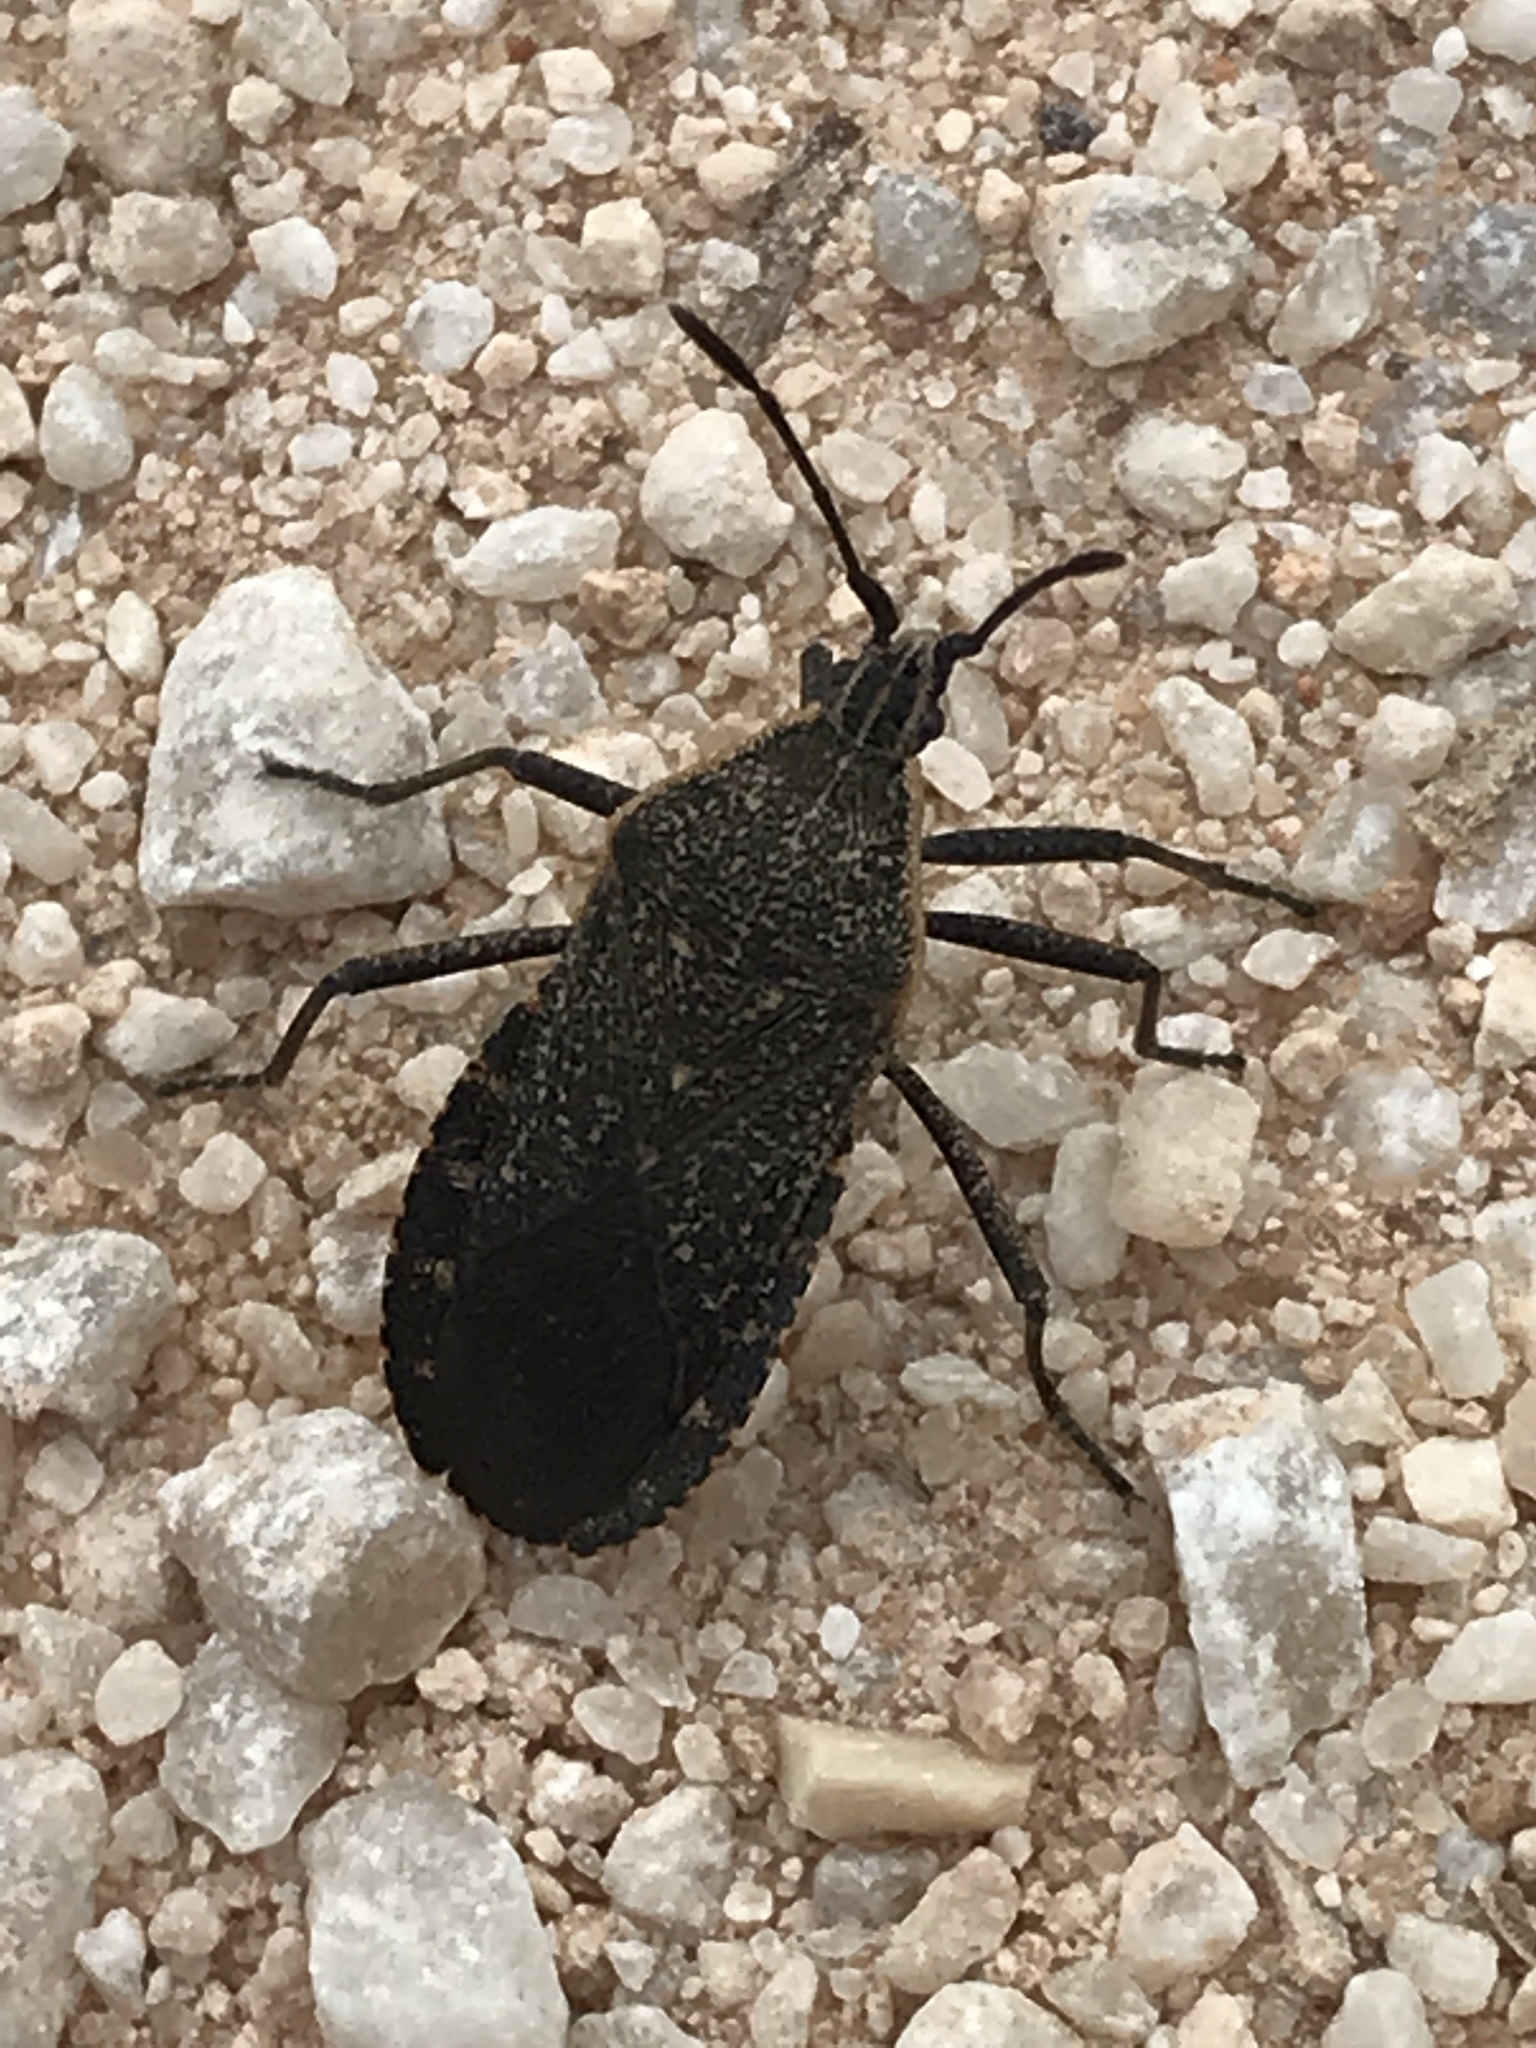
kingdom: Animalia
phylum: Arthropoda
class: Insecta
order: Hemiptera
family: Coreidae
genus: Anasa
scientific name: Anasa tristis
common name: Squash bug
